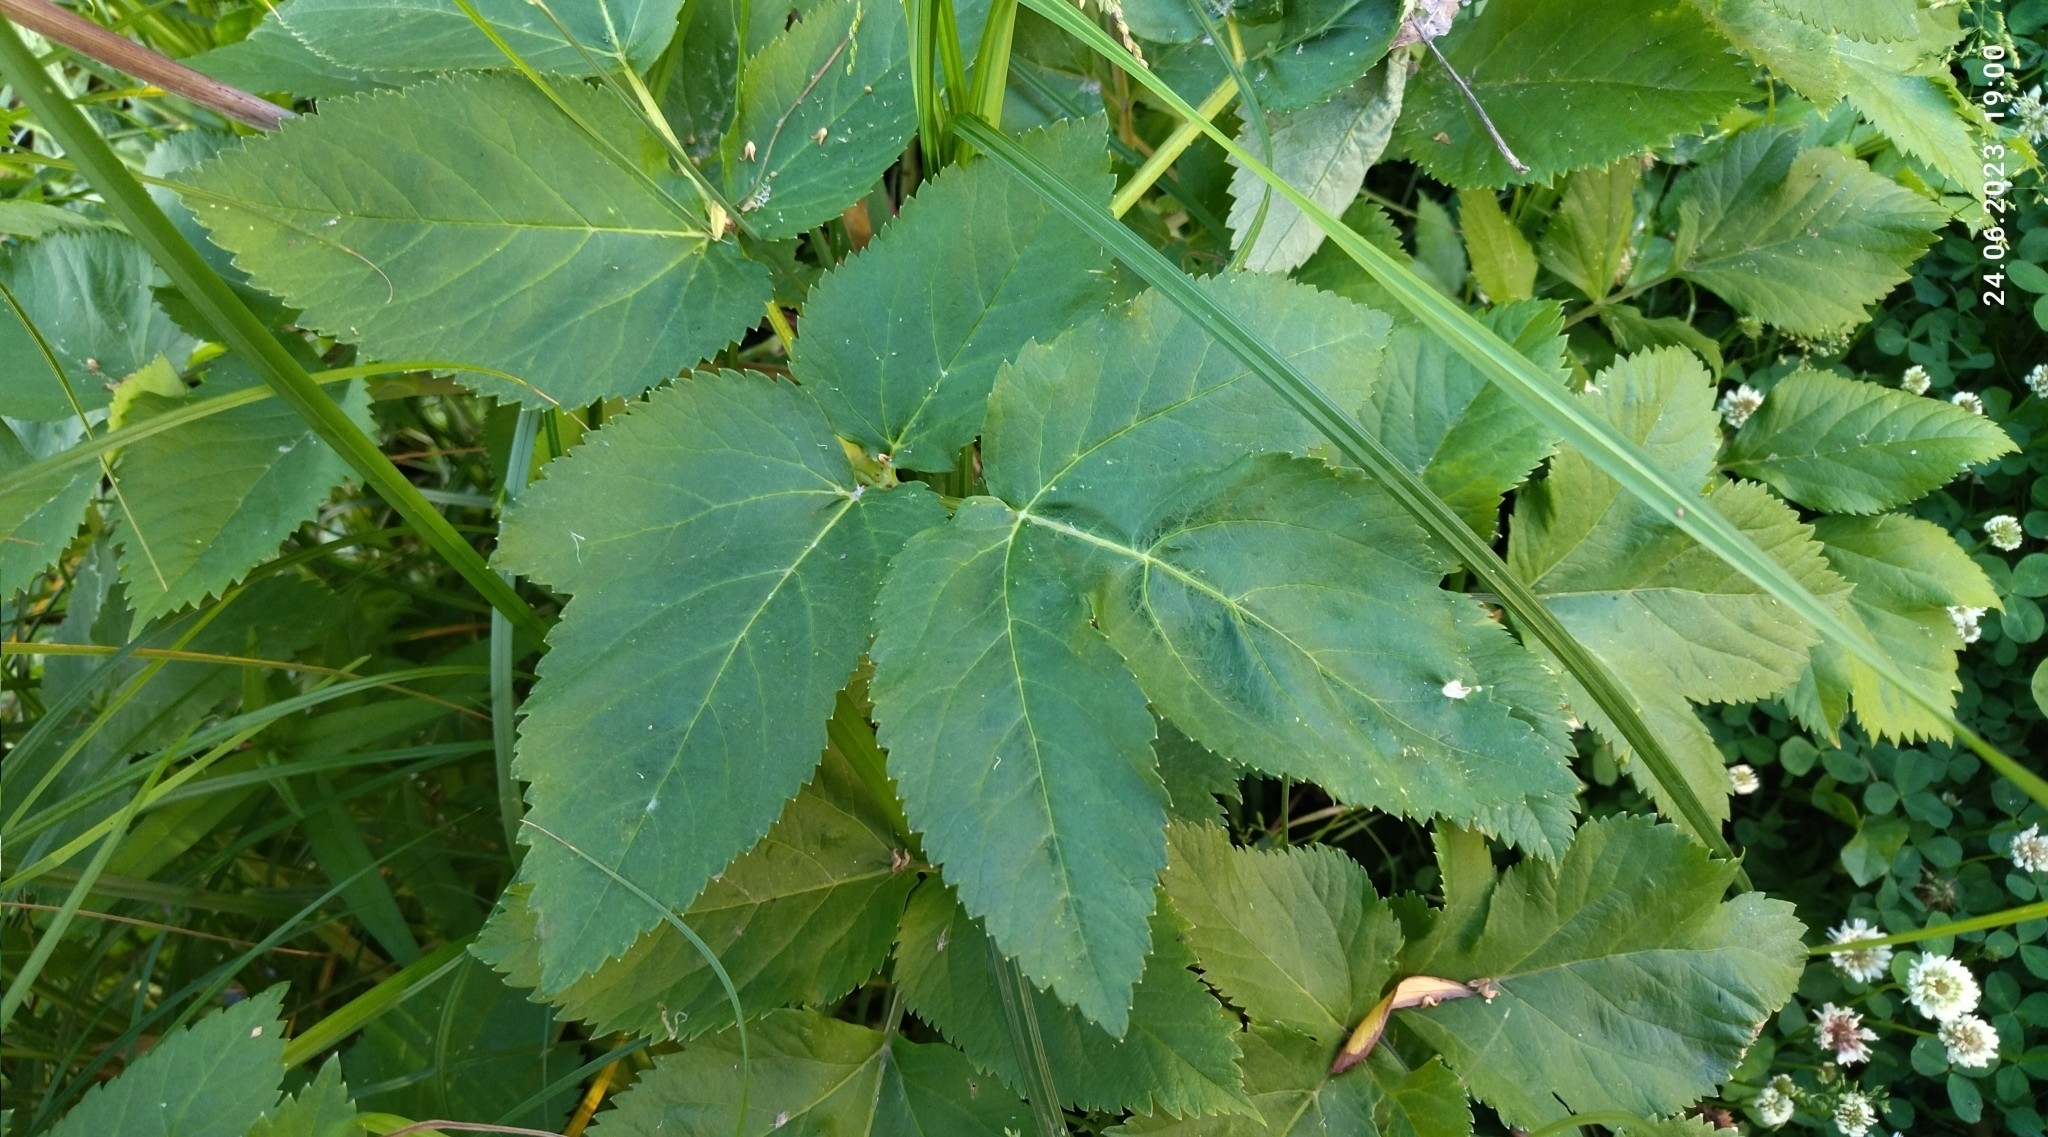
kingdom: Plantae
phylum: Tracheophyta
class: Magnoliopsida
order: Apiales
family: Apiaceae
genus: Angelica
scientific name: Angelica archangelica
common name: Garden angelica
